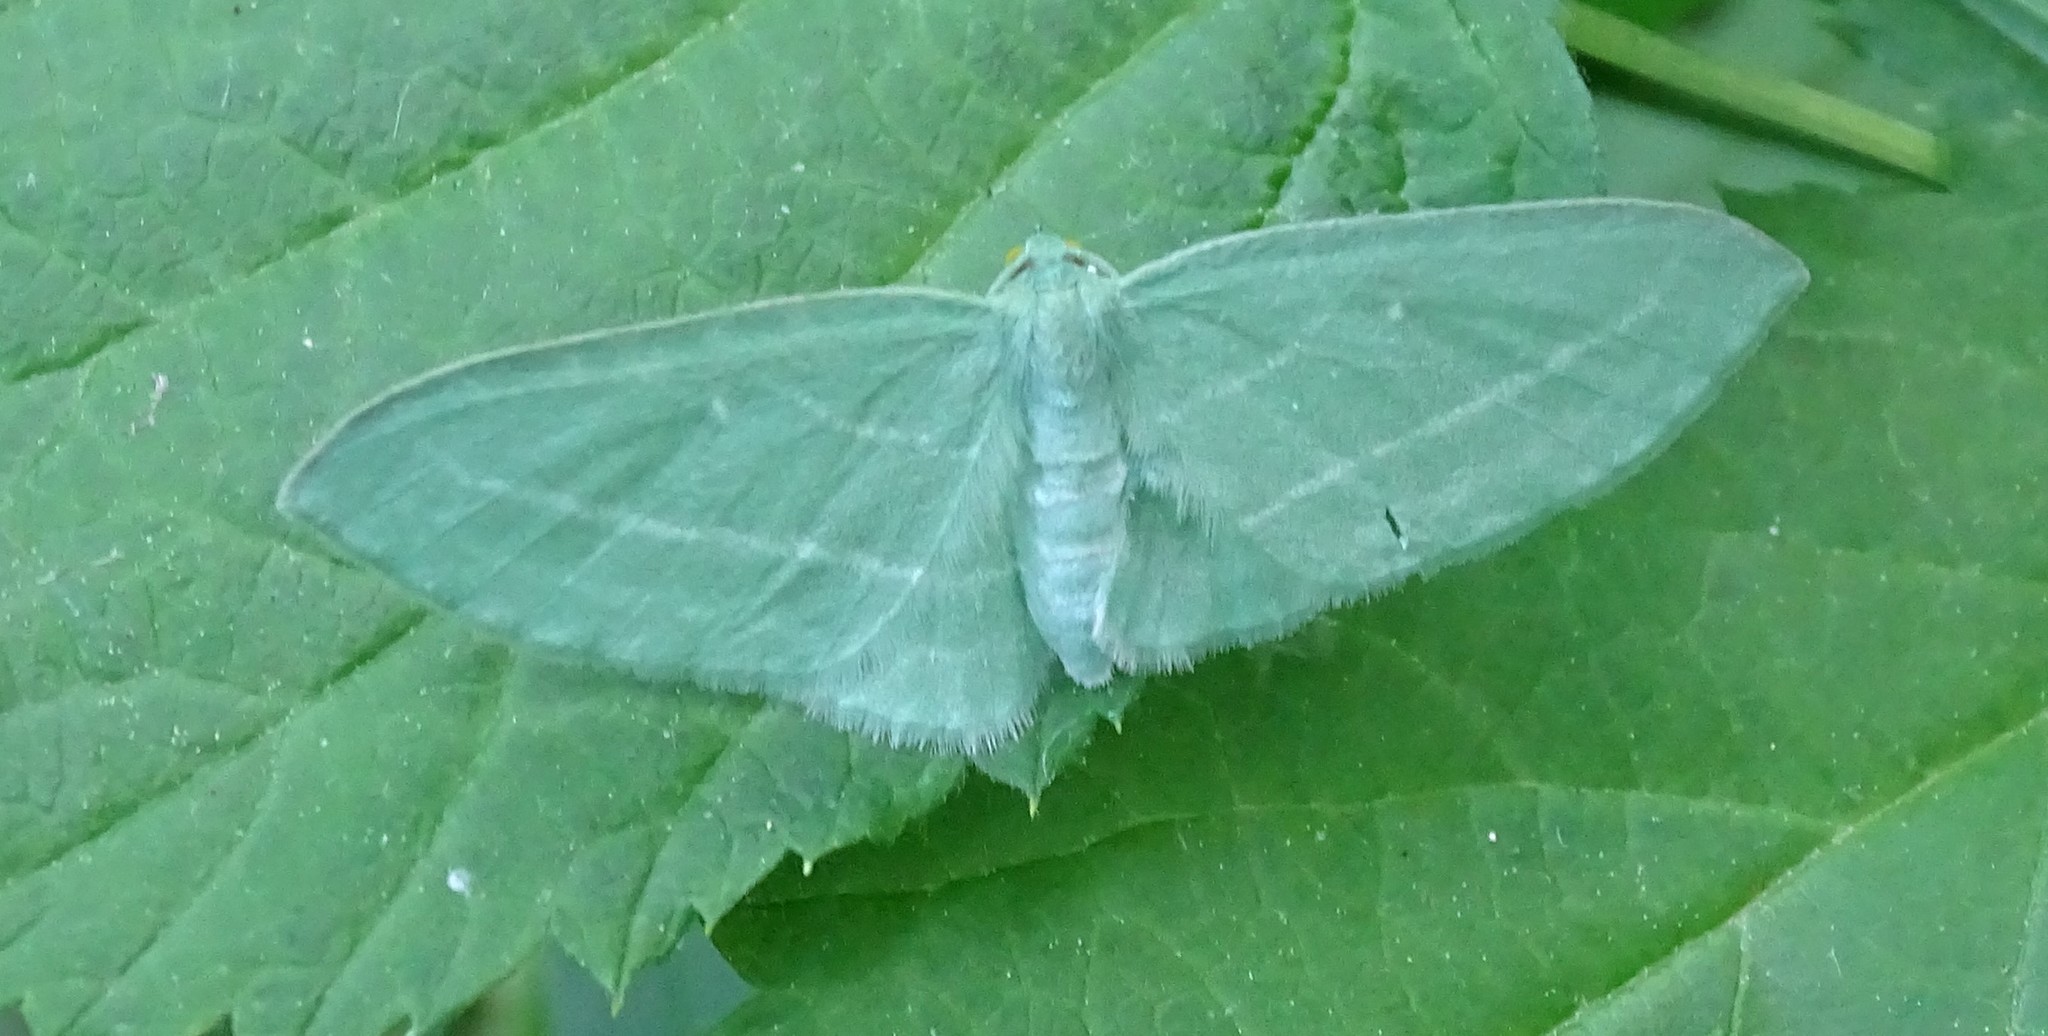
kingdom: Animalia
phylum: Arthropoda
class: Insecta
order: Lepidoptera
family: Geometridae
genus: Dyspteris
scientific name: Dyspteris abortivaria
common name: Bad-wing
